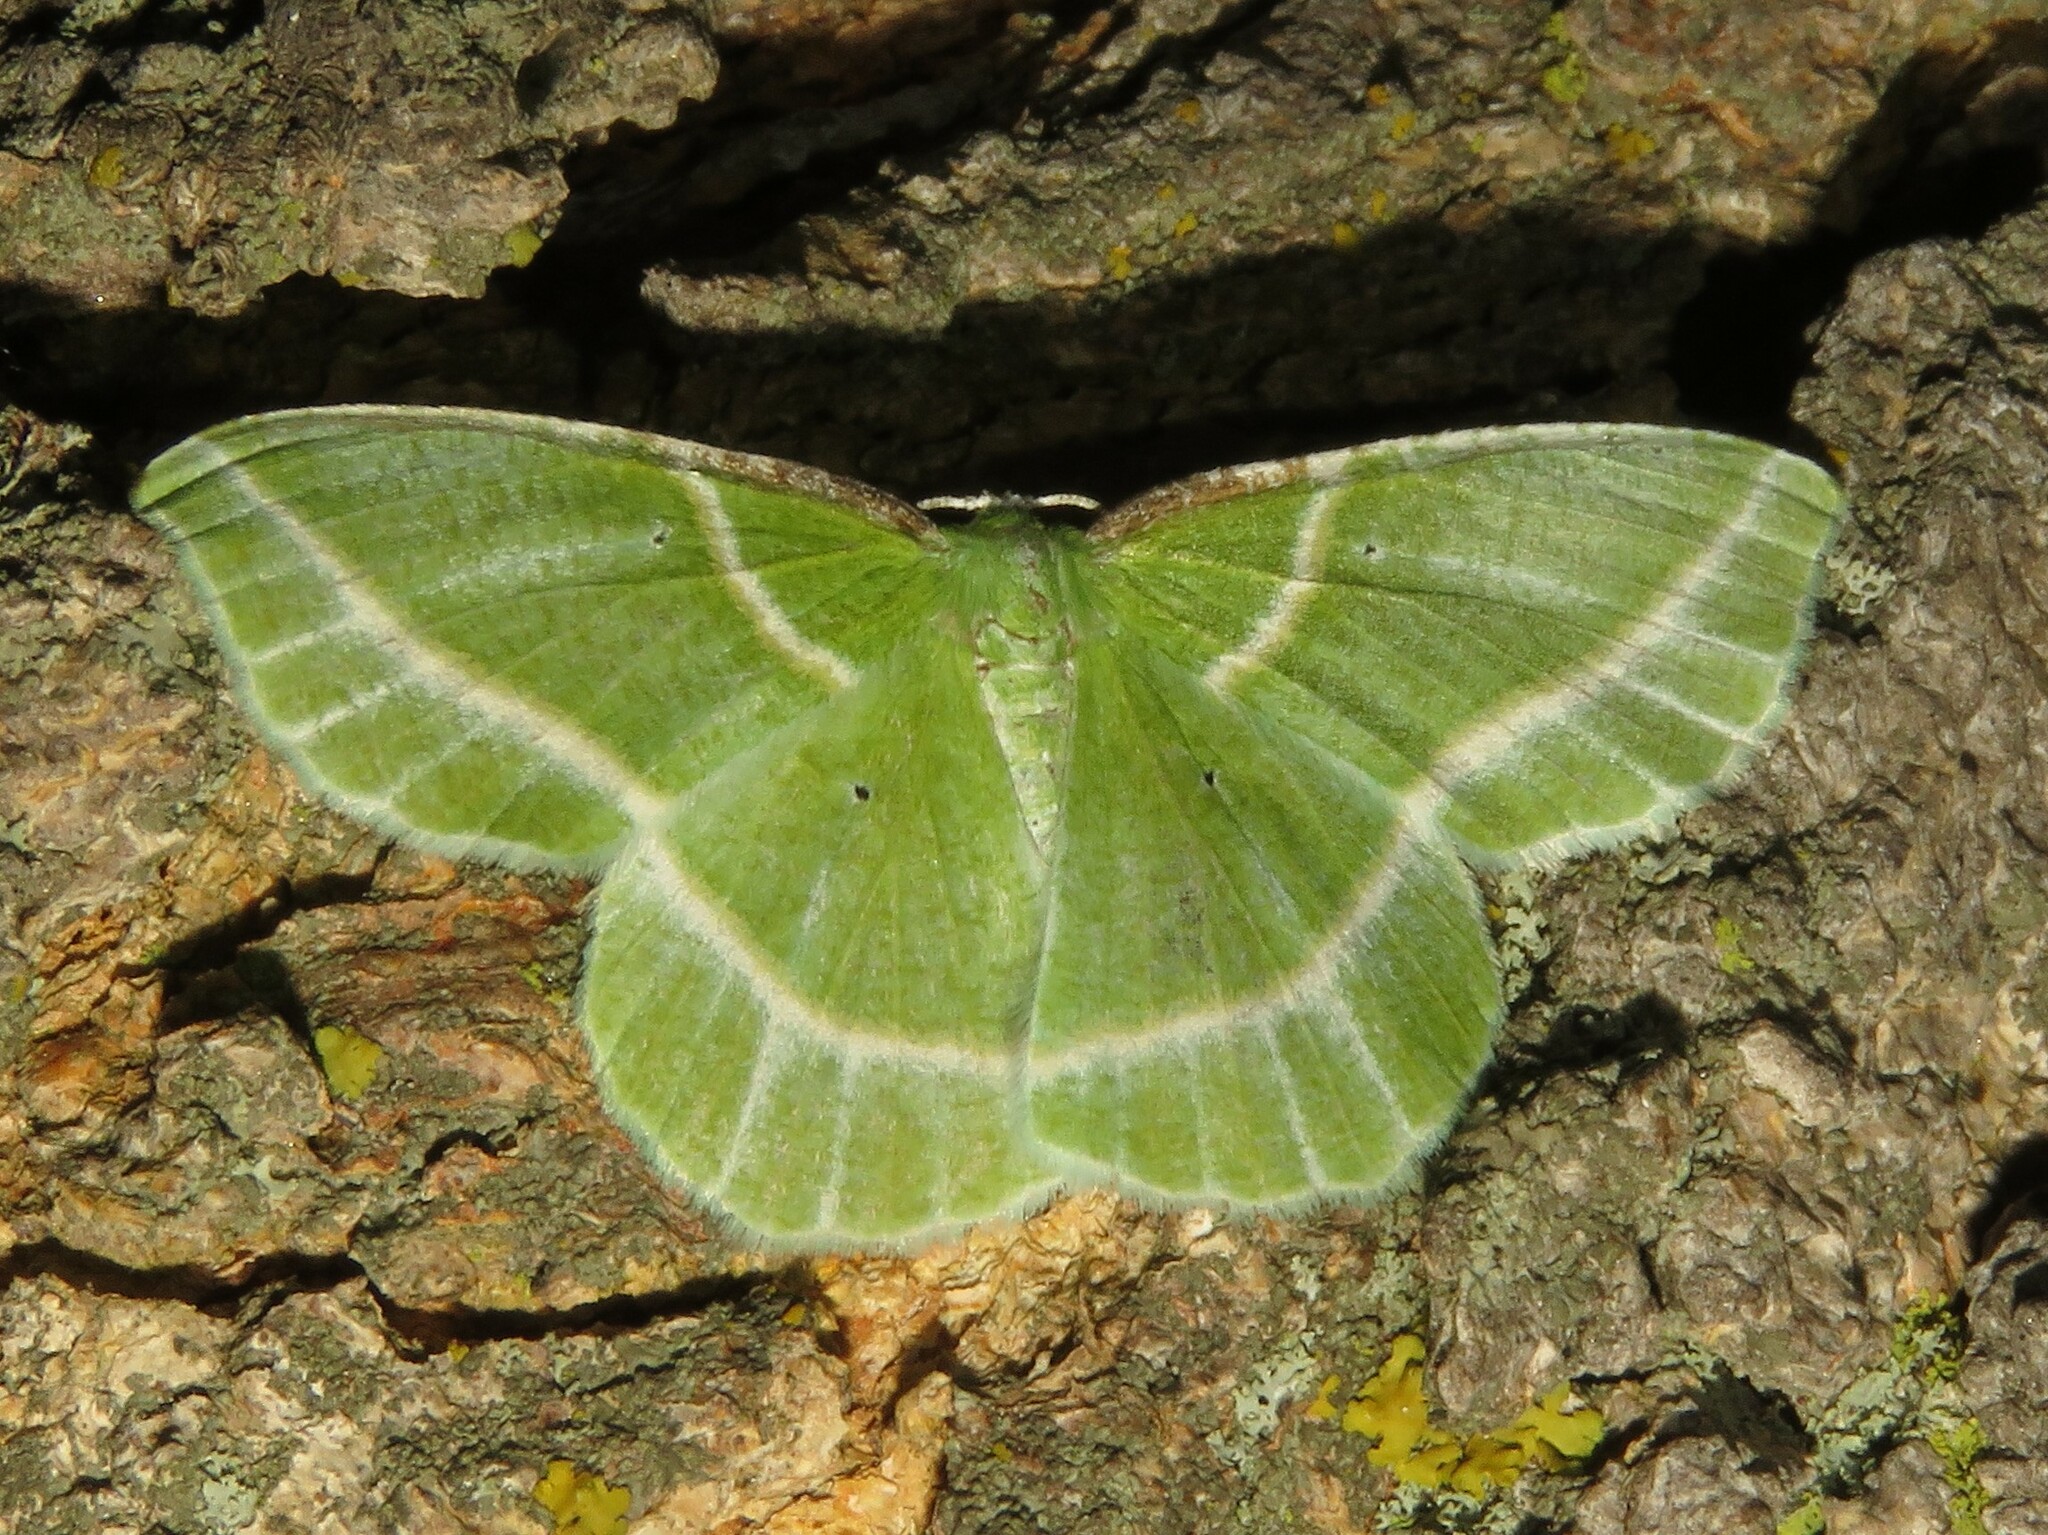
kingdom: Animalia
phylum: Arthropoda
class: Insecta
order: Lepidoptera
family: Geometridae
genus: Dichorda
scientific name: Dichorda iridaria
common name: Showy emerald
